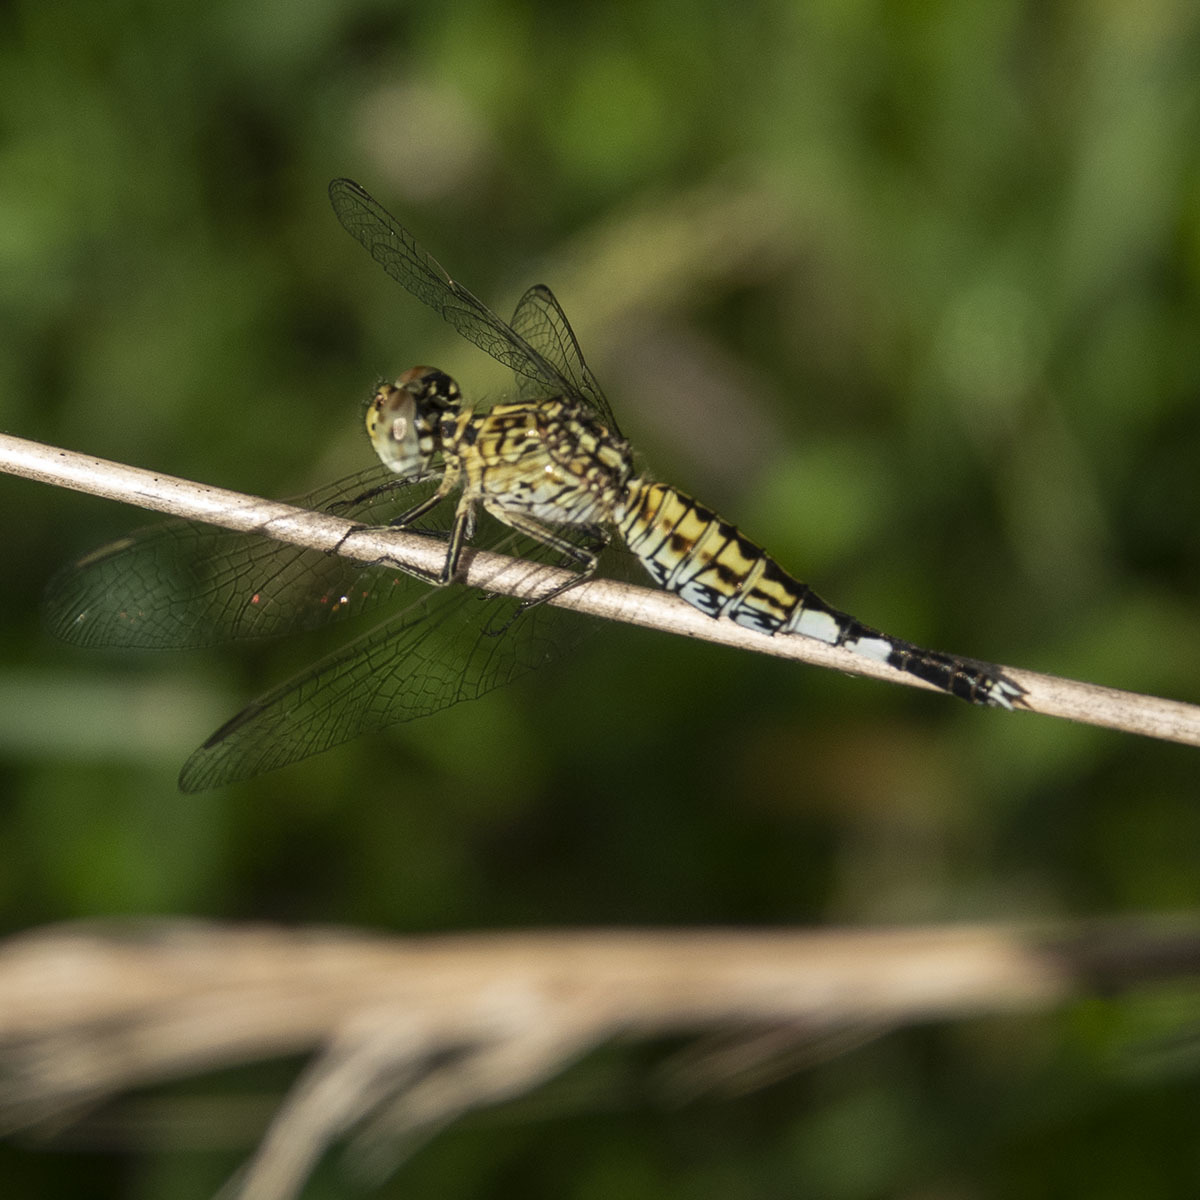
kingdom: Animalia
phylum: Arthropoda
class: Insecta
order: Odonata
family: Libellulidae
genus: Acisoma
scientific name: Acisoma panorpoides
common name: Asian pintail
